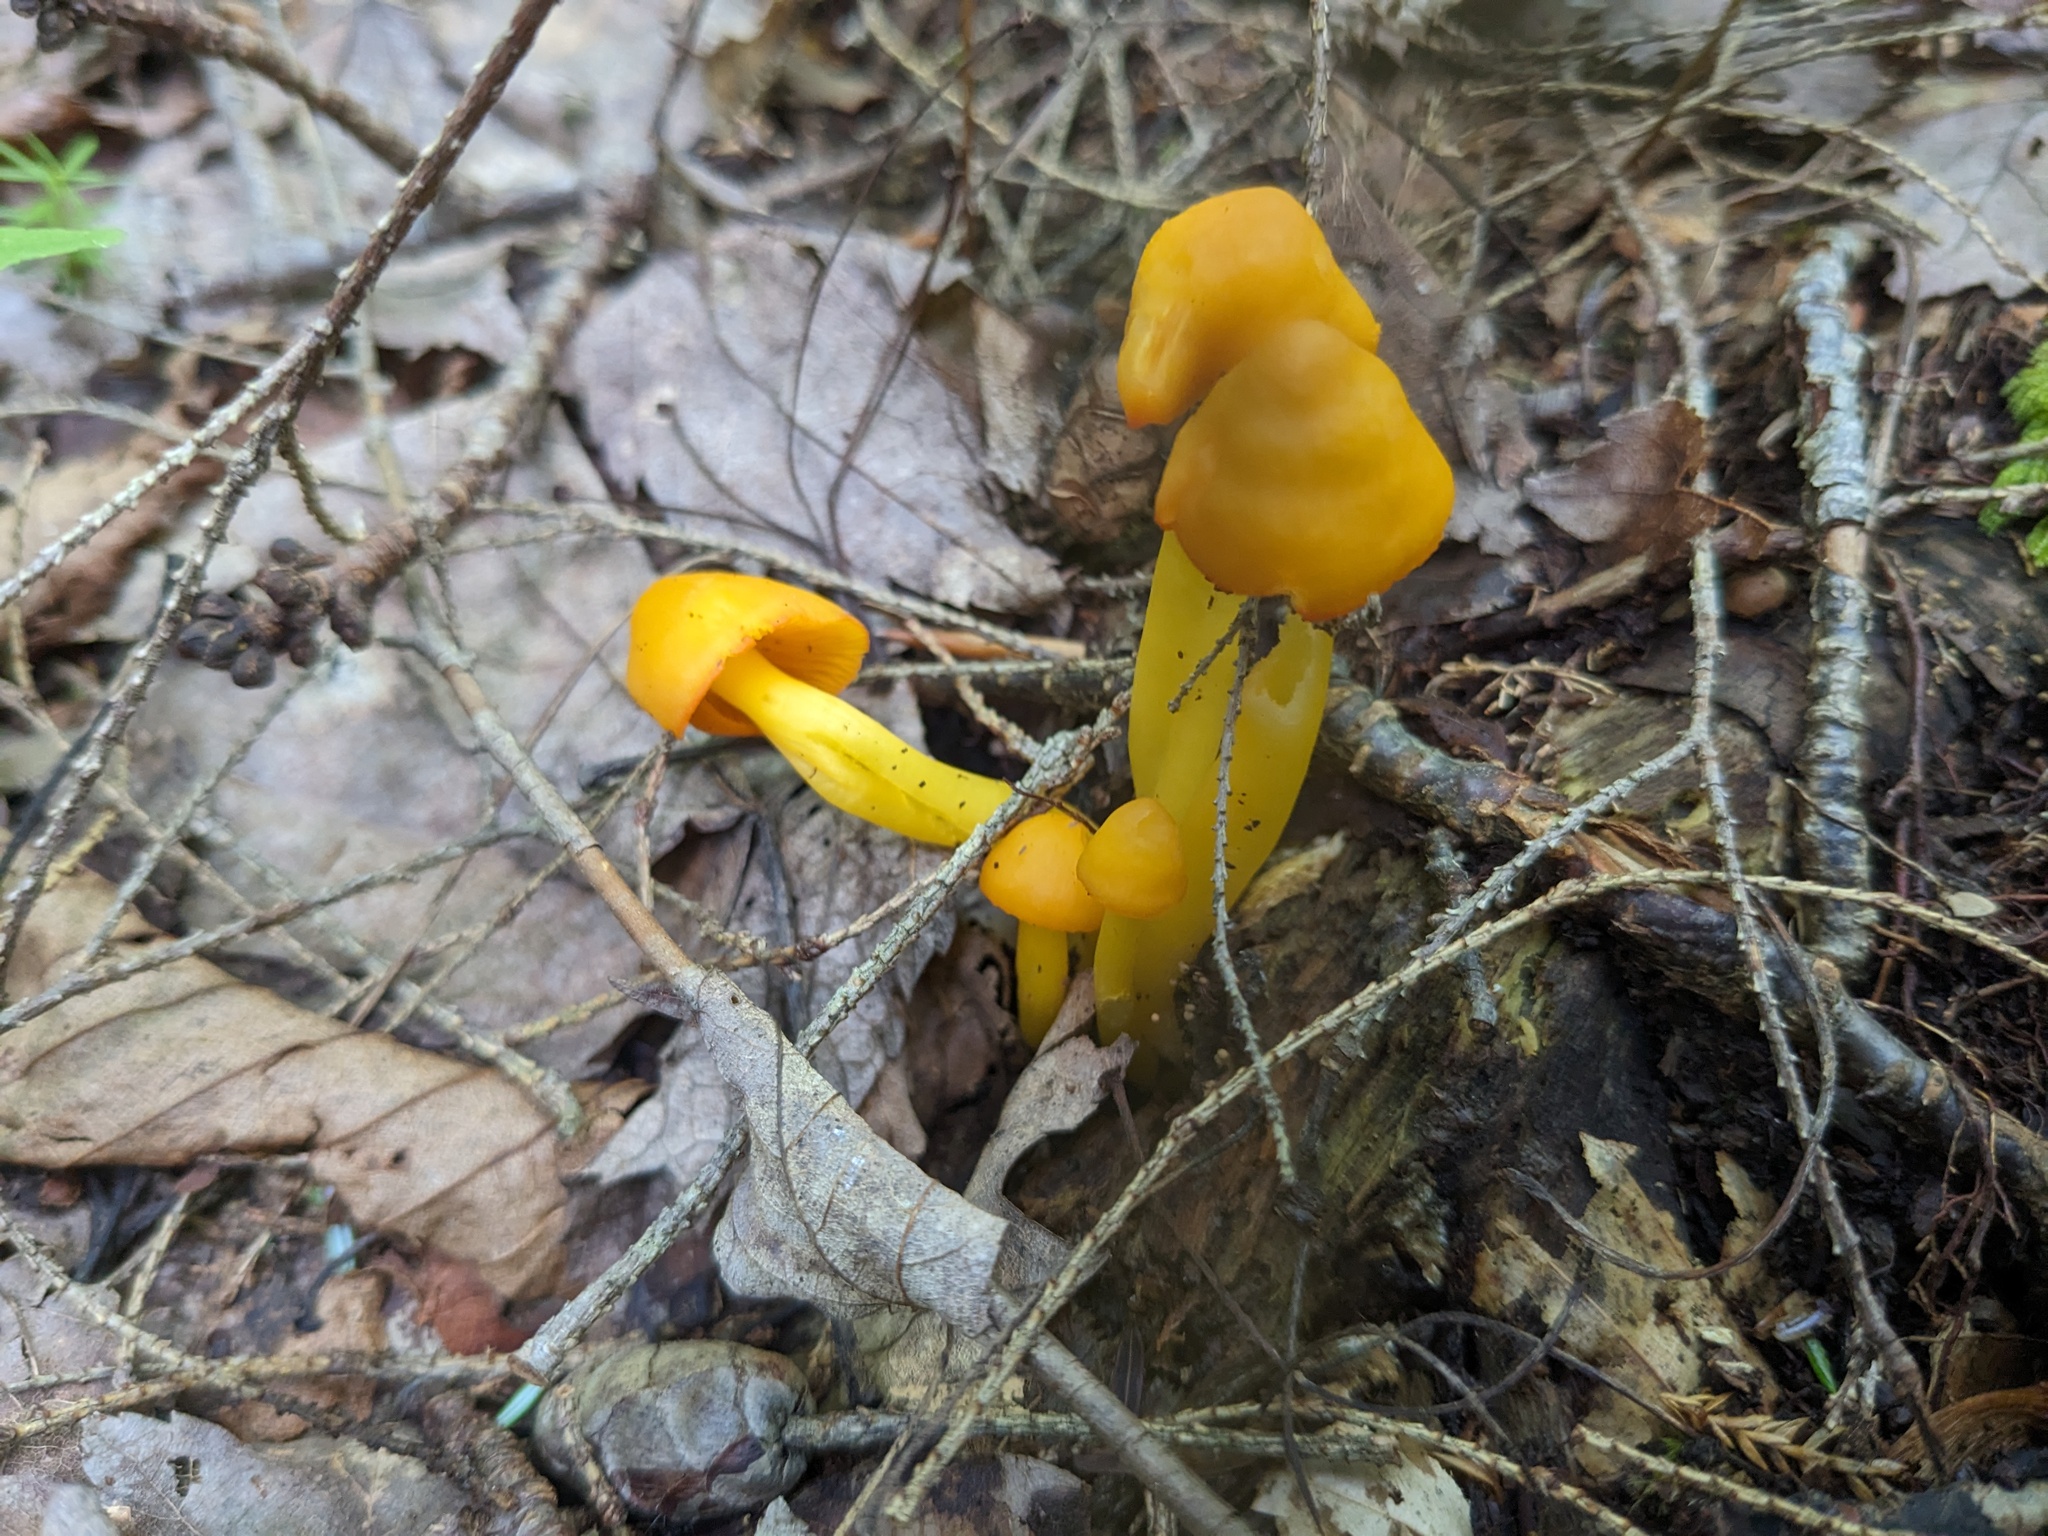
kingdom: Fungi
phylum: Basidiomycota
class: Agaricomycetes
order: Agaricales
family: Hygrophoraceae
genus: Humidicutis
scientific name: Humidicutis marginata
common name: Orange gilled waxcap
